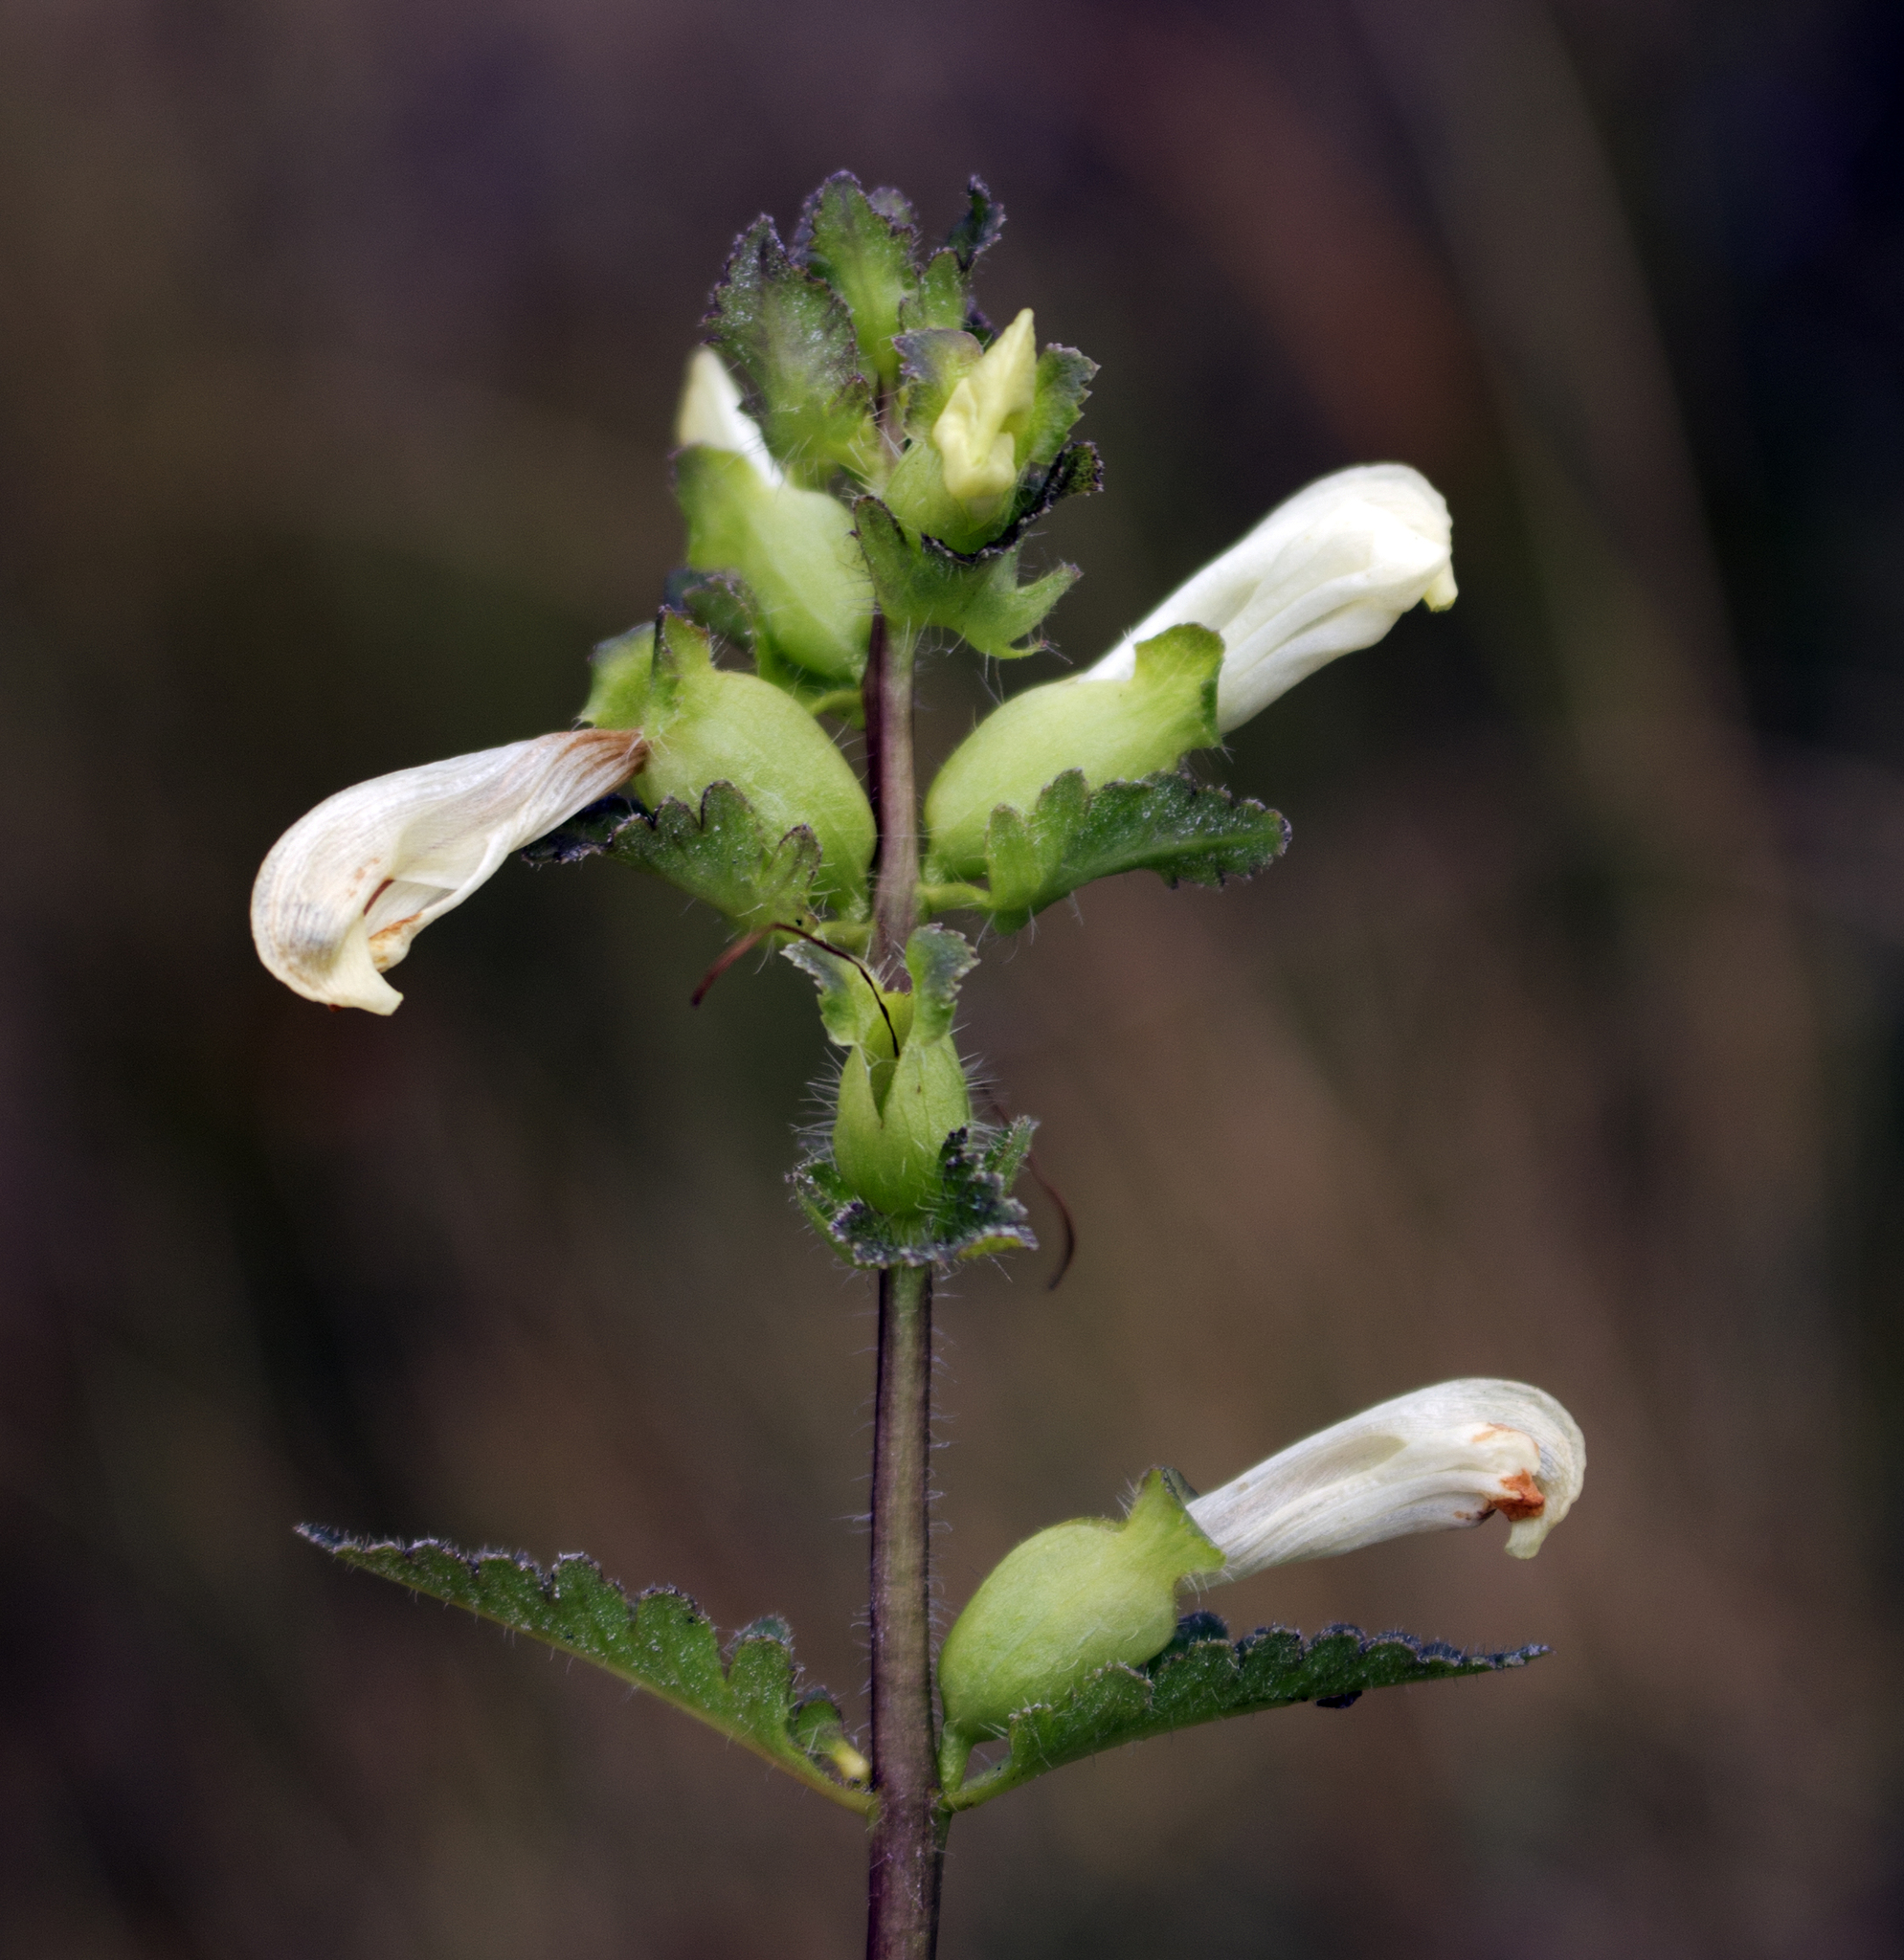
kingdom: Plantae
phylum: Tracheophyta
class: Magnoliopsida
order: Lamiales
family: Orobanchaceae
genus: Pedicularis
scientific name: Pedicularis lanceolata
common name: Swamp lousewort
